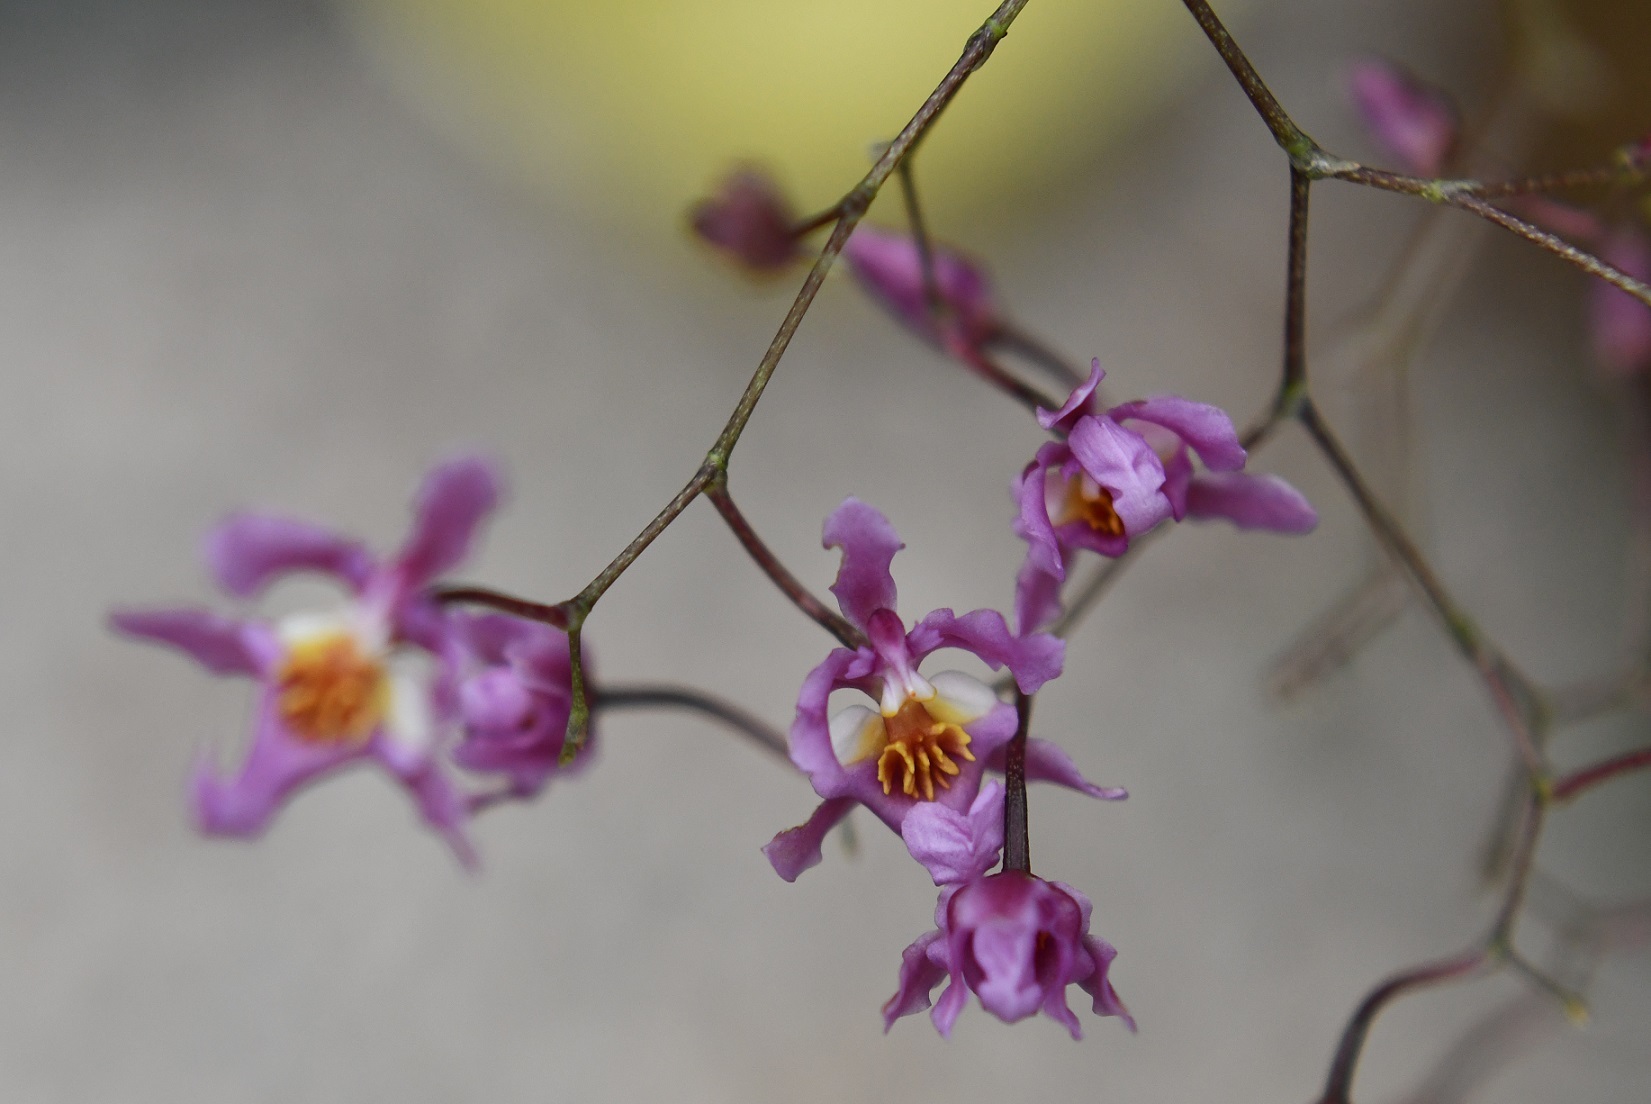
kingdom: Plantae
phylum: Tracheophyta
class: Liliopsida
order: Asparagales
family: Orchidaceae
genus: Oncidium
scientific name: Oncidium sotoanum
